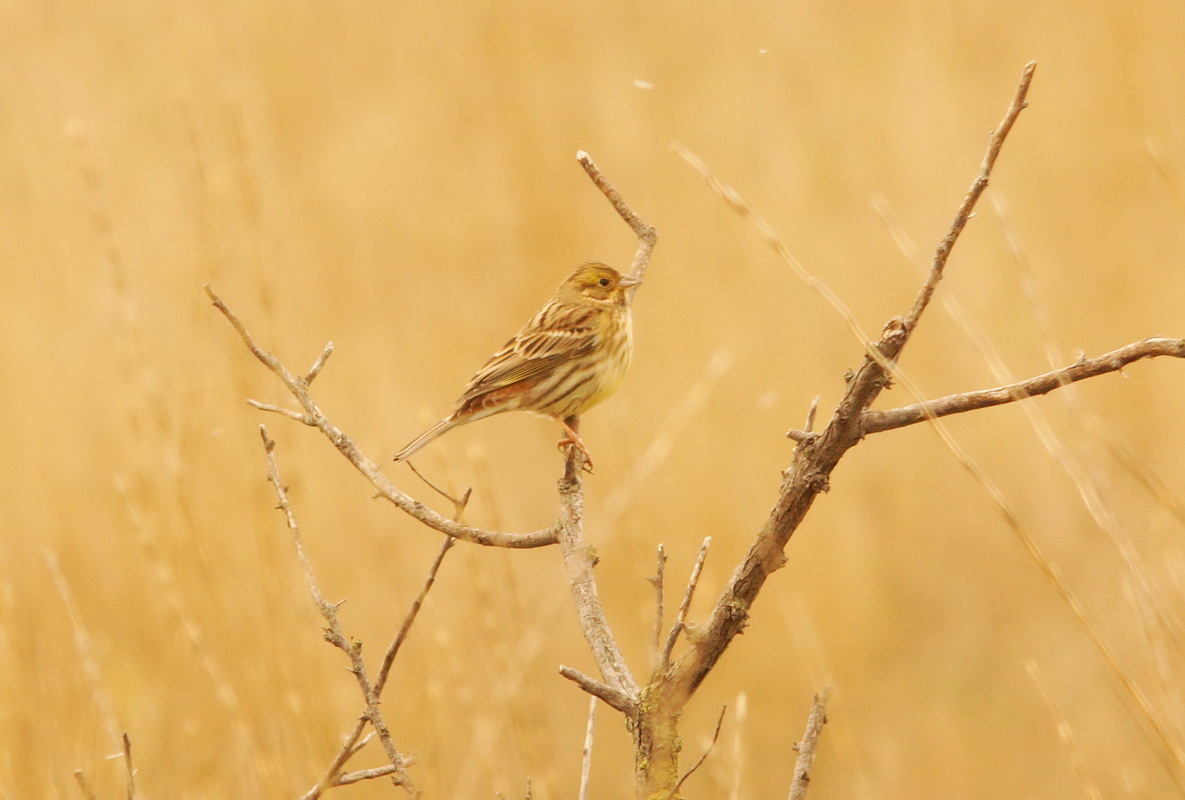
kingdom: Animalia
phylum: Chordata
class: Aves
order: Passeriformes
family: Emberizidae
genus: Emberiza
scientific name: Emberiza citrinella
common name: Yellowhammer
